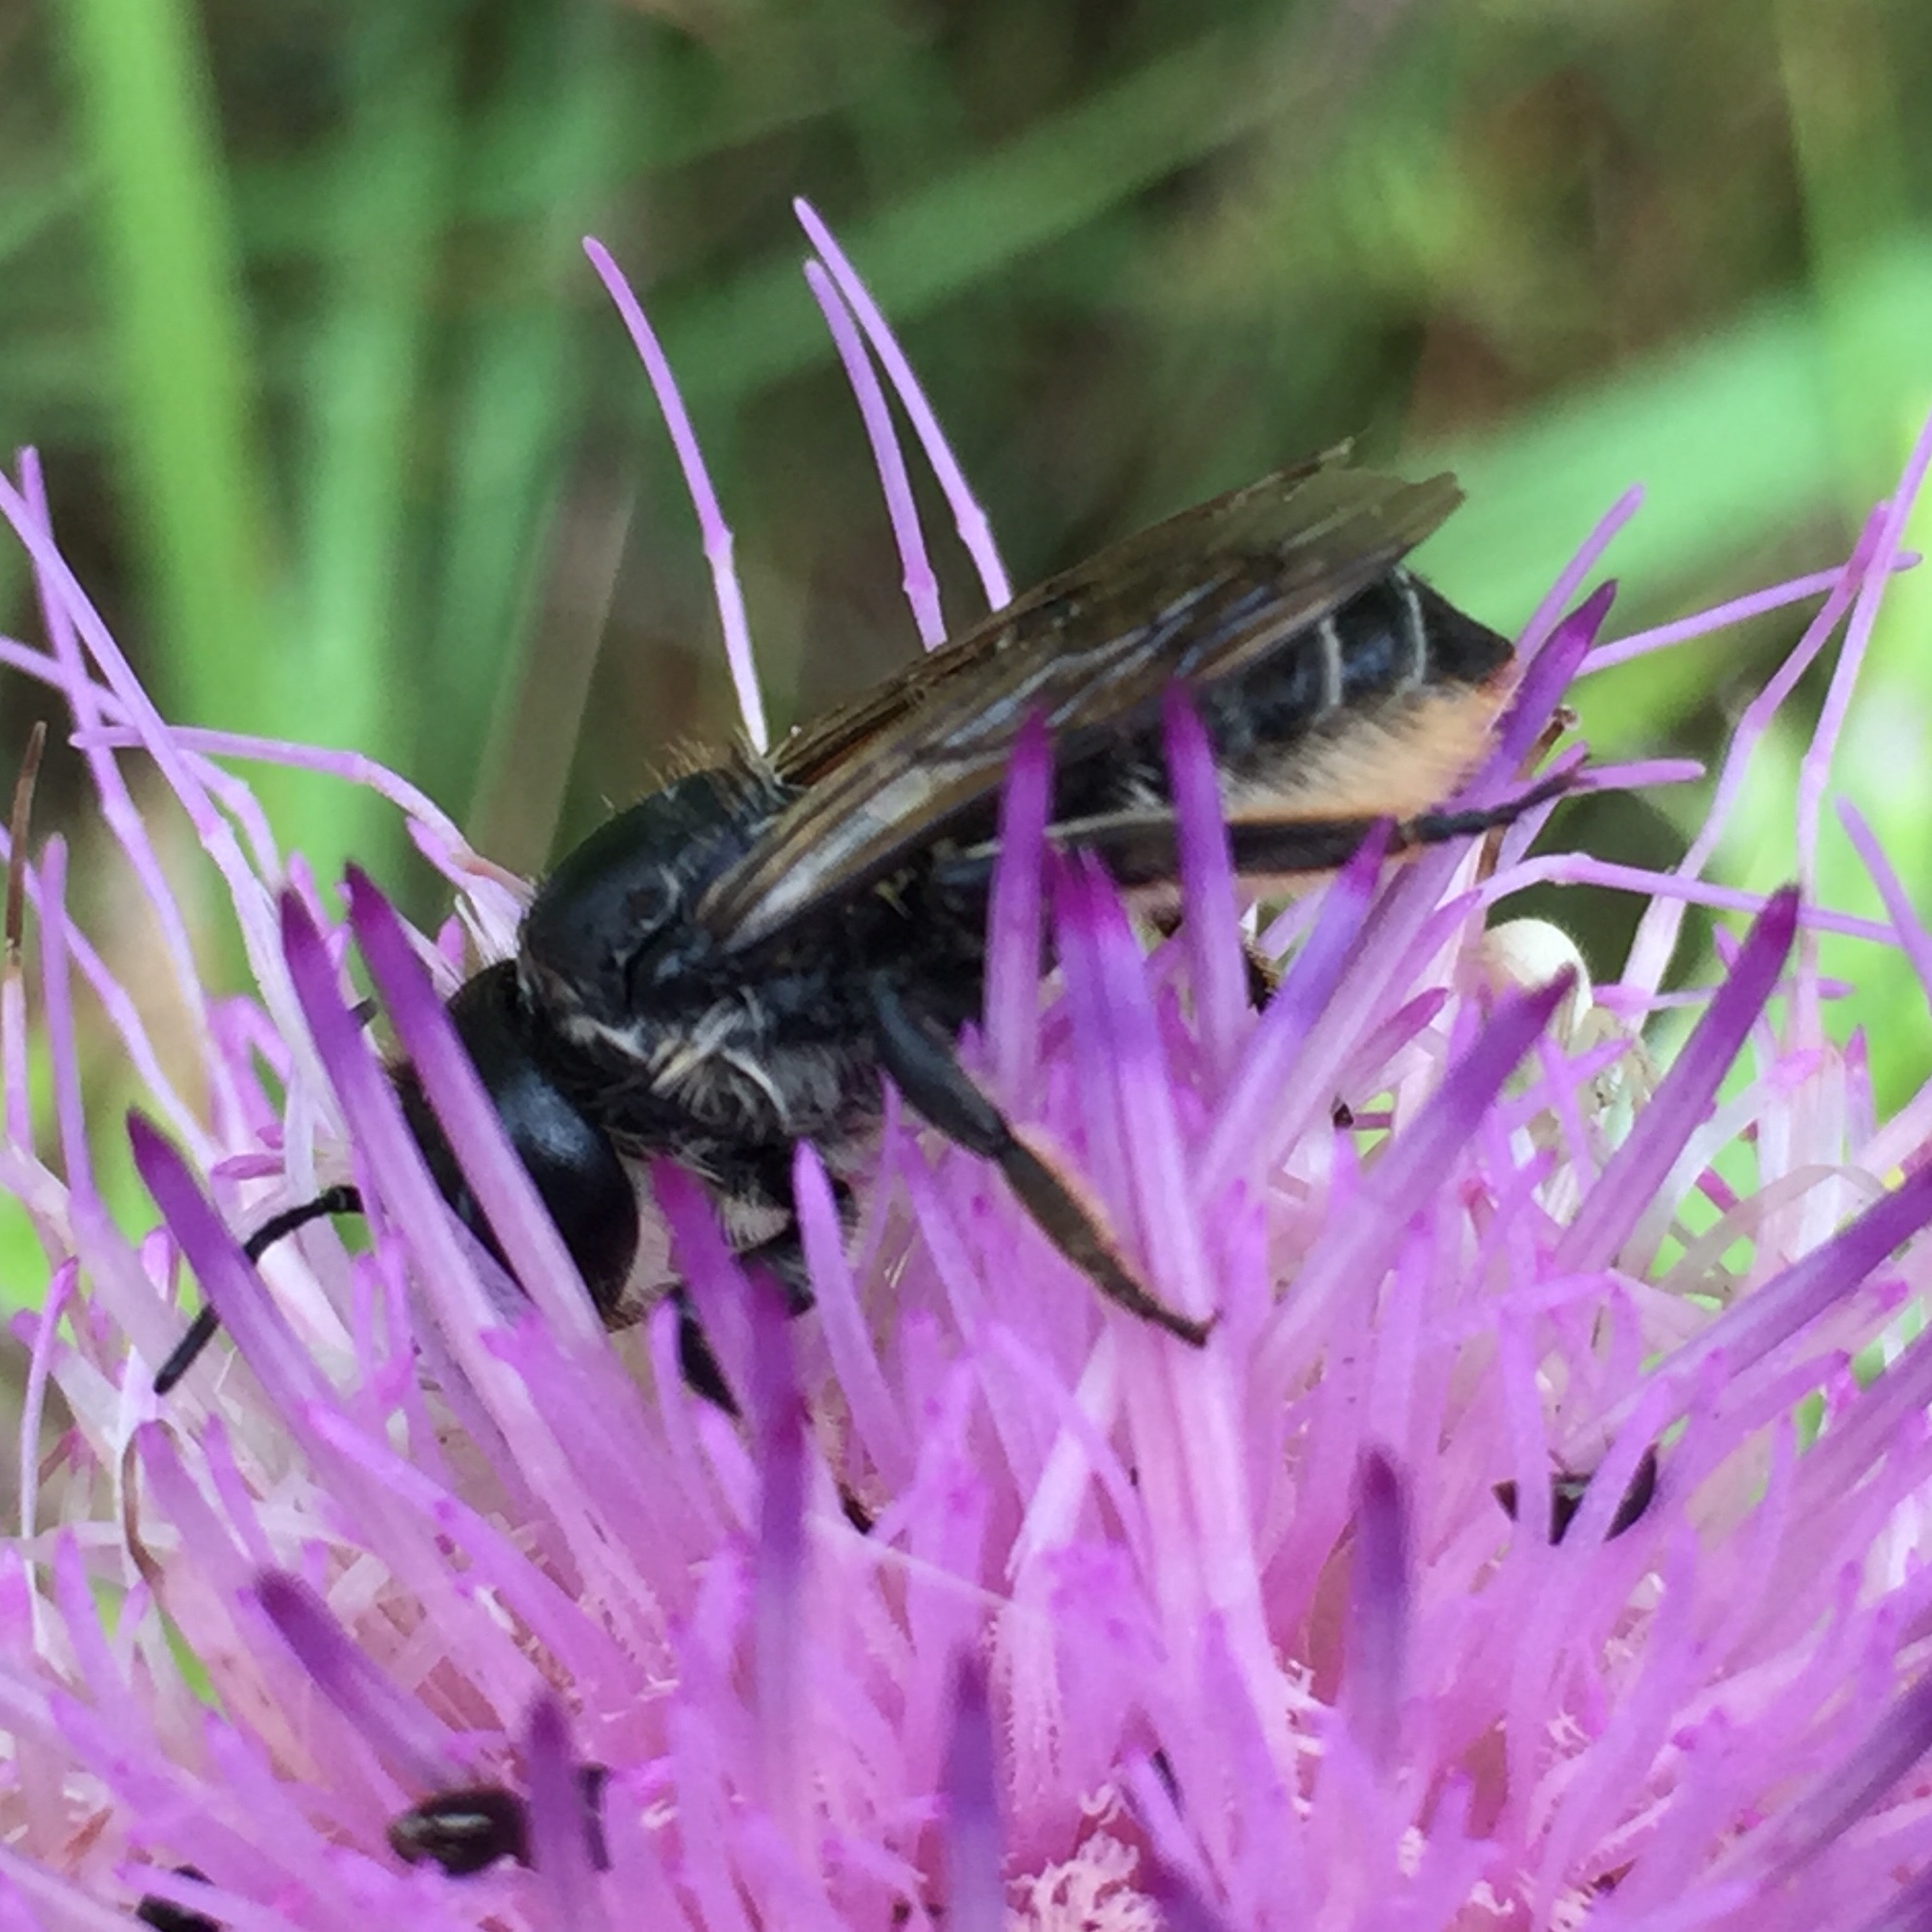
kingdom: Animalia
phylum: Arthropoda
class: Insecta
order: Hymenoptera
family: Megachilidae
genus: Megachile
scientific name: Megachile inermis
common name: Unarmed leafcutter bee
